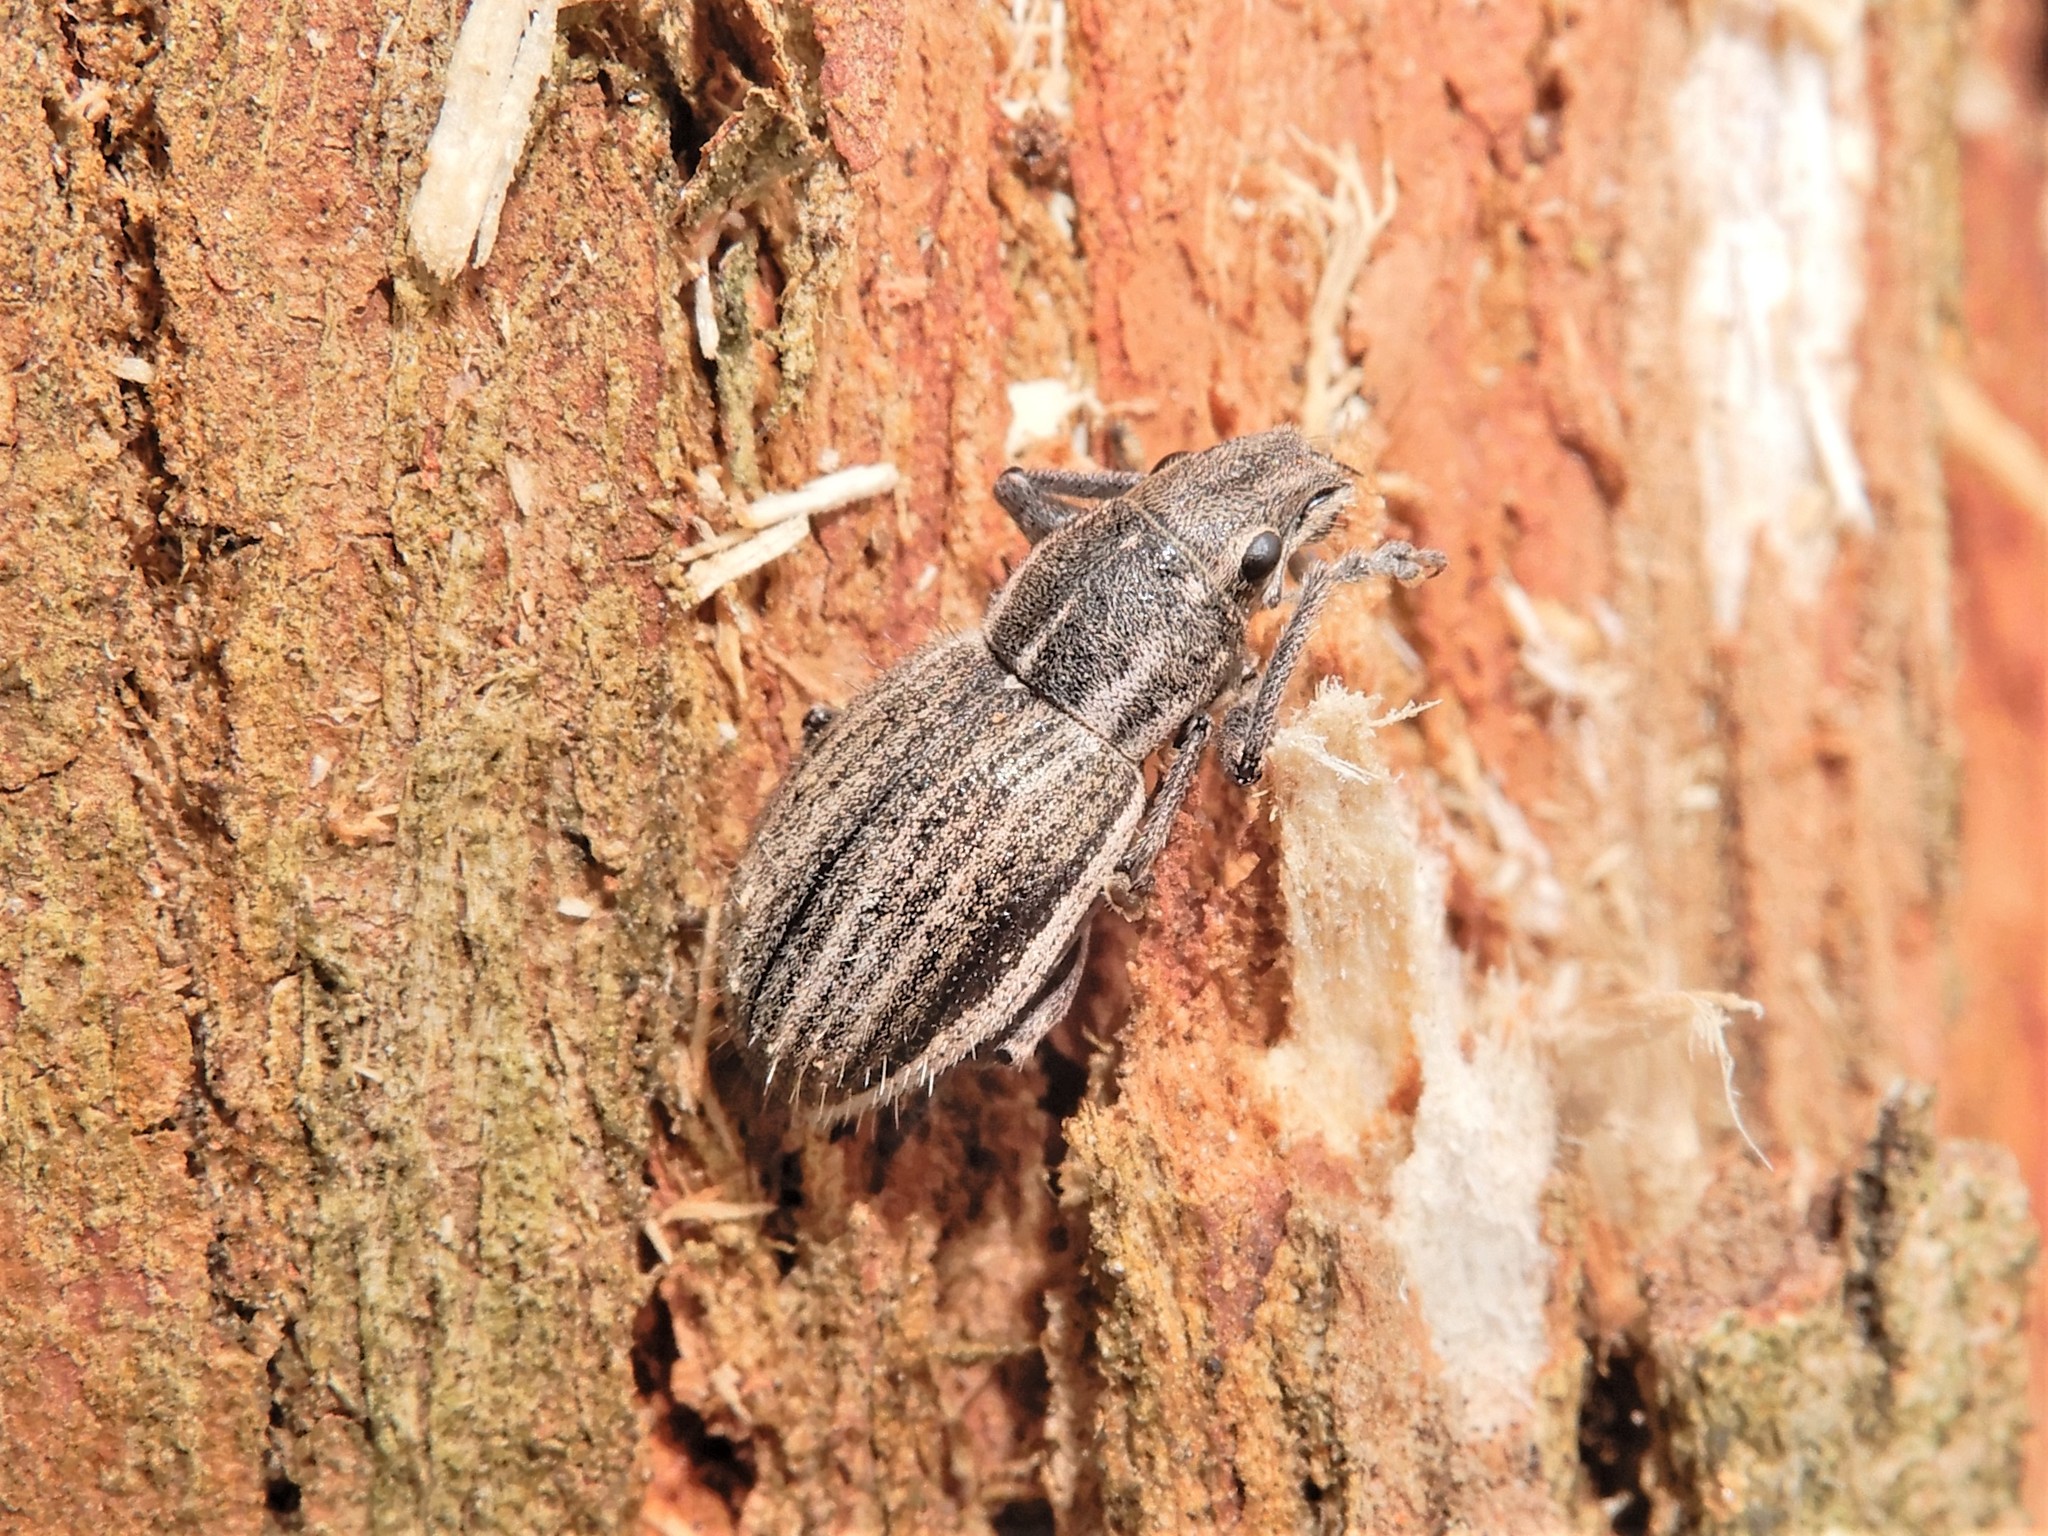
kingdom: Animalia
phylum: Arthropoda
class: Insecta
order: Coleoptera
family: Curculionidae
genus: Naupactus
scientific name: Naupactus leucoloma
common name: Whitefringed beetle
